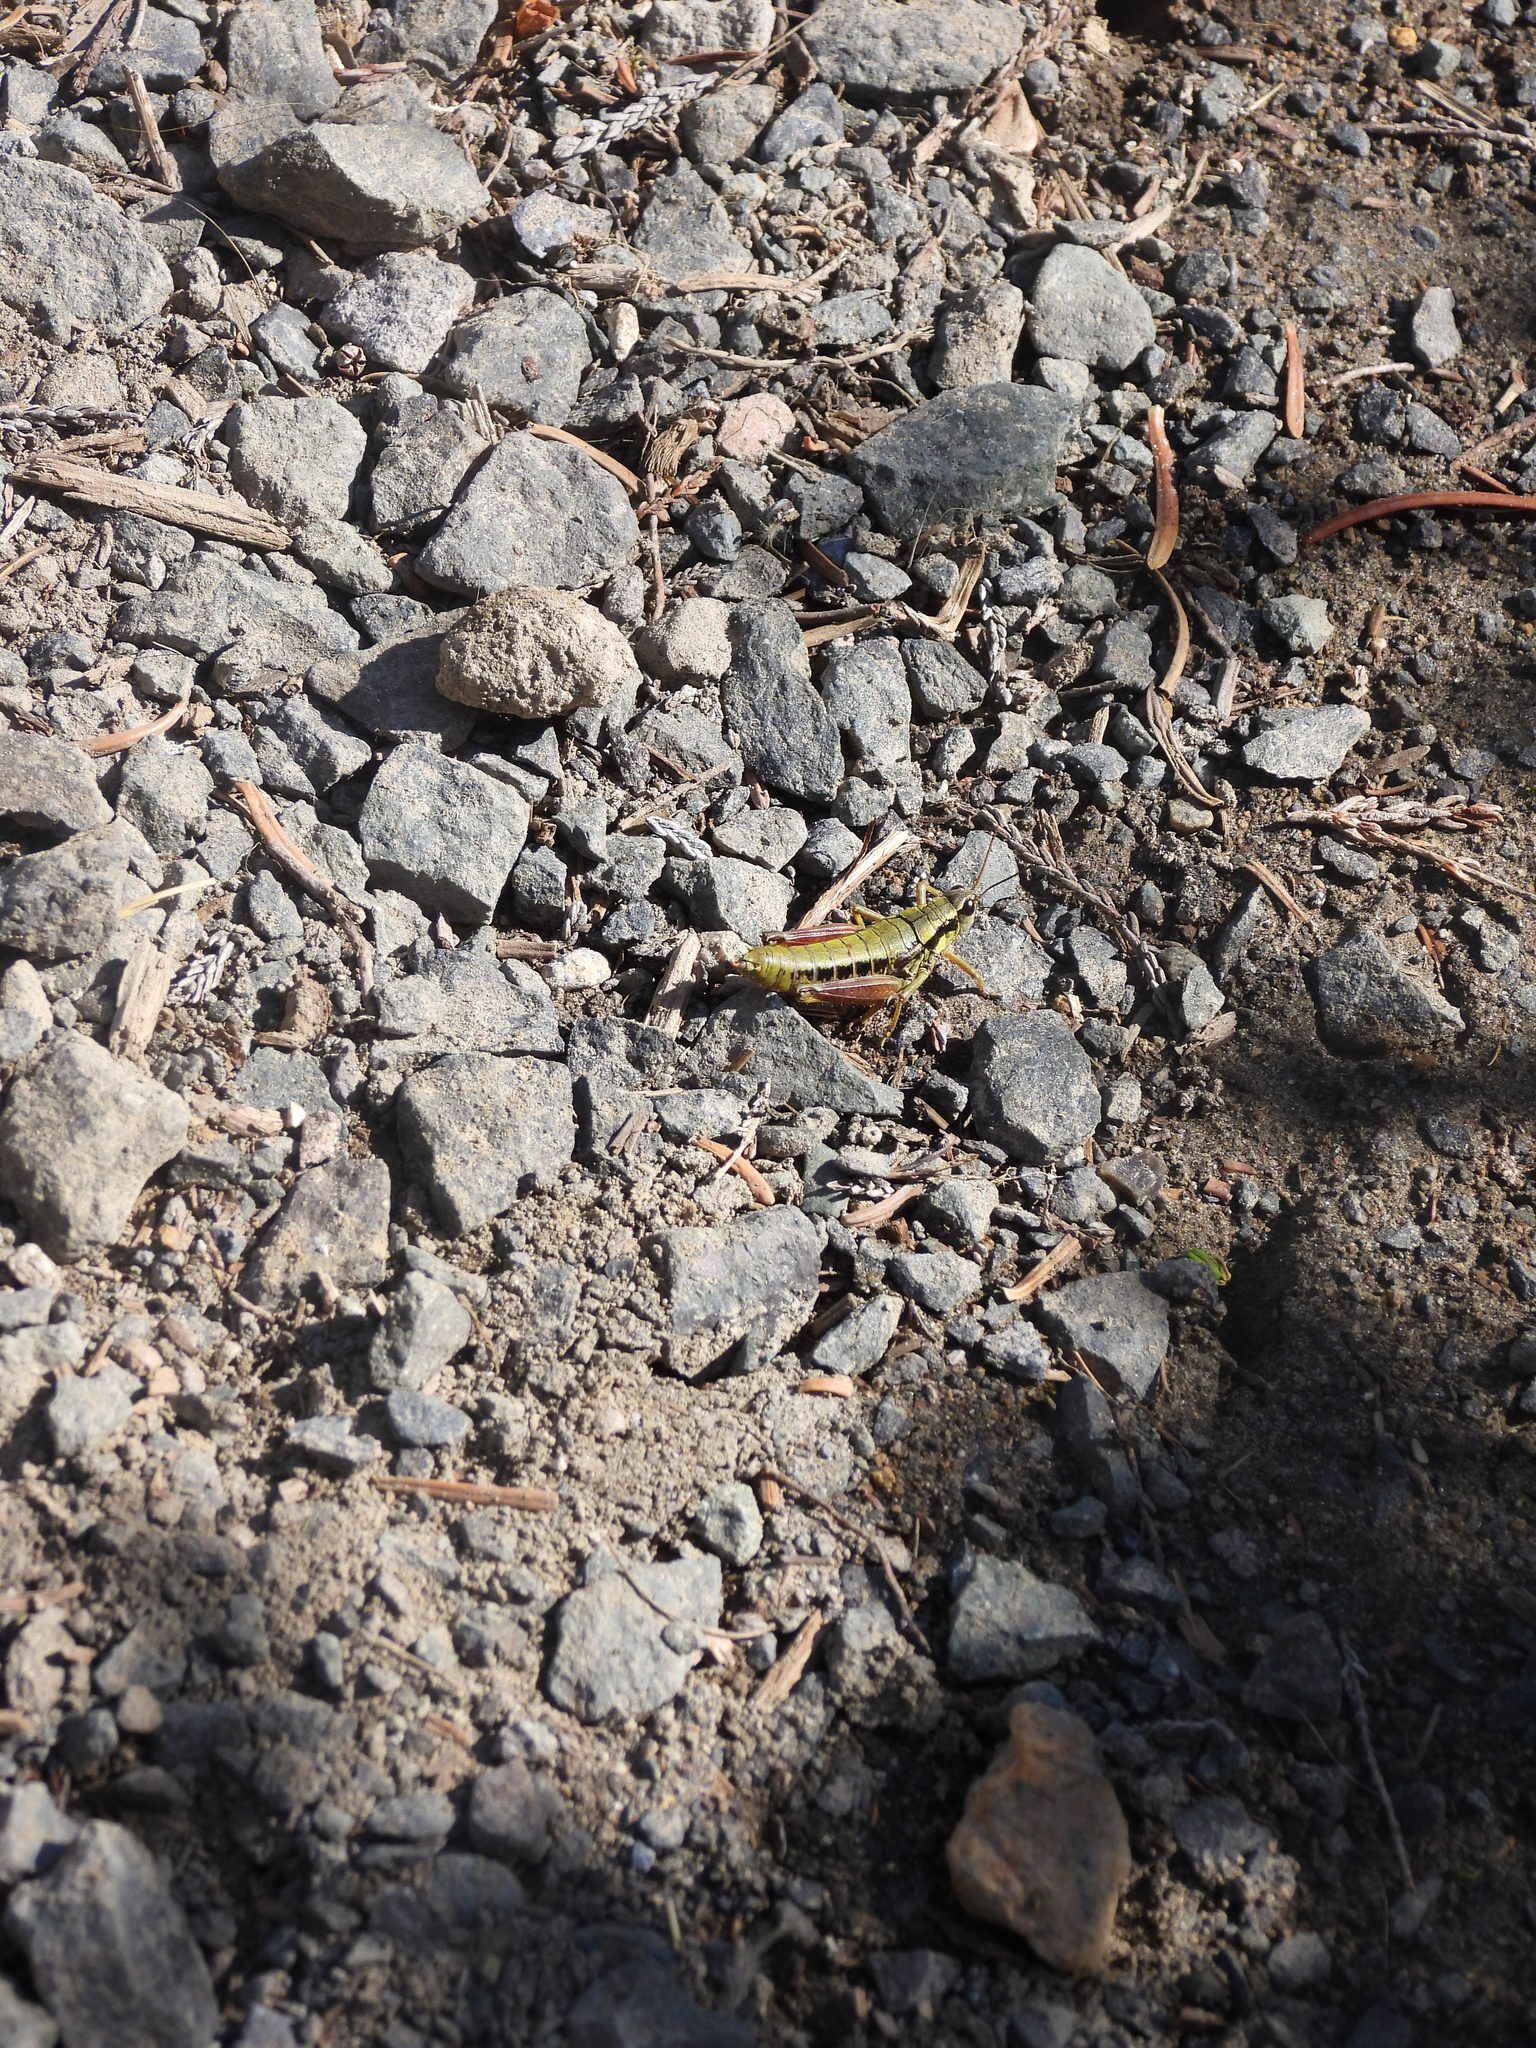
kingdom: Animalia
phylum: Arthropoda
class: Insecta
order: Orthoptera
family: Acrididae
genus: Prumnacris
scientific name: Prumnacris rainierensis
